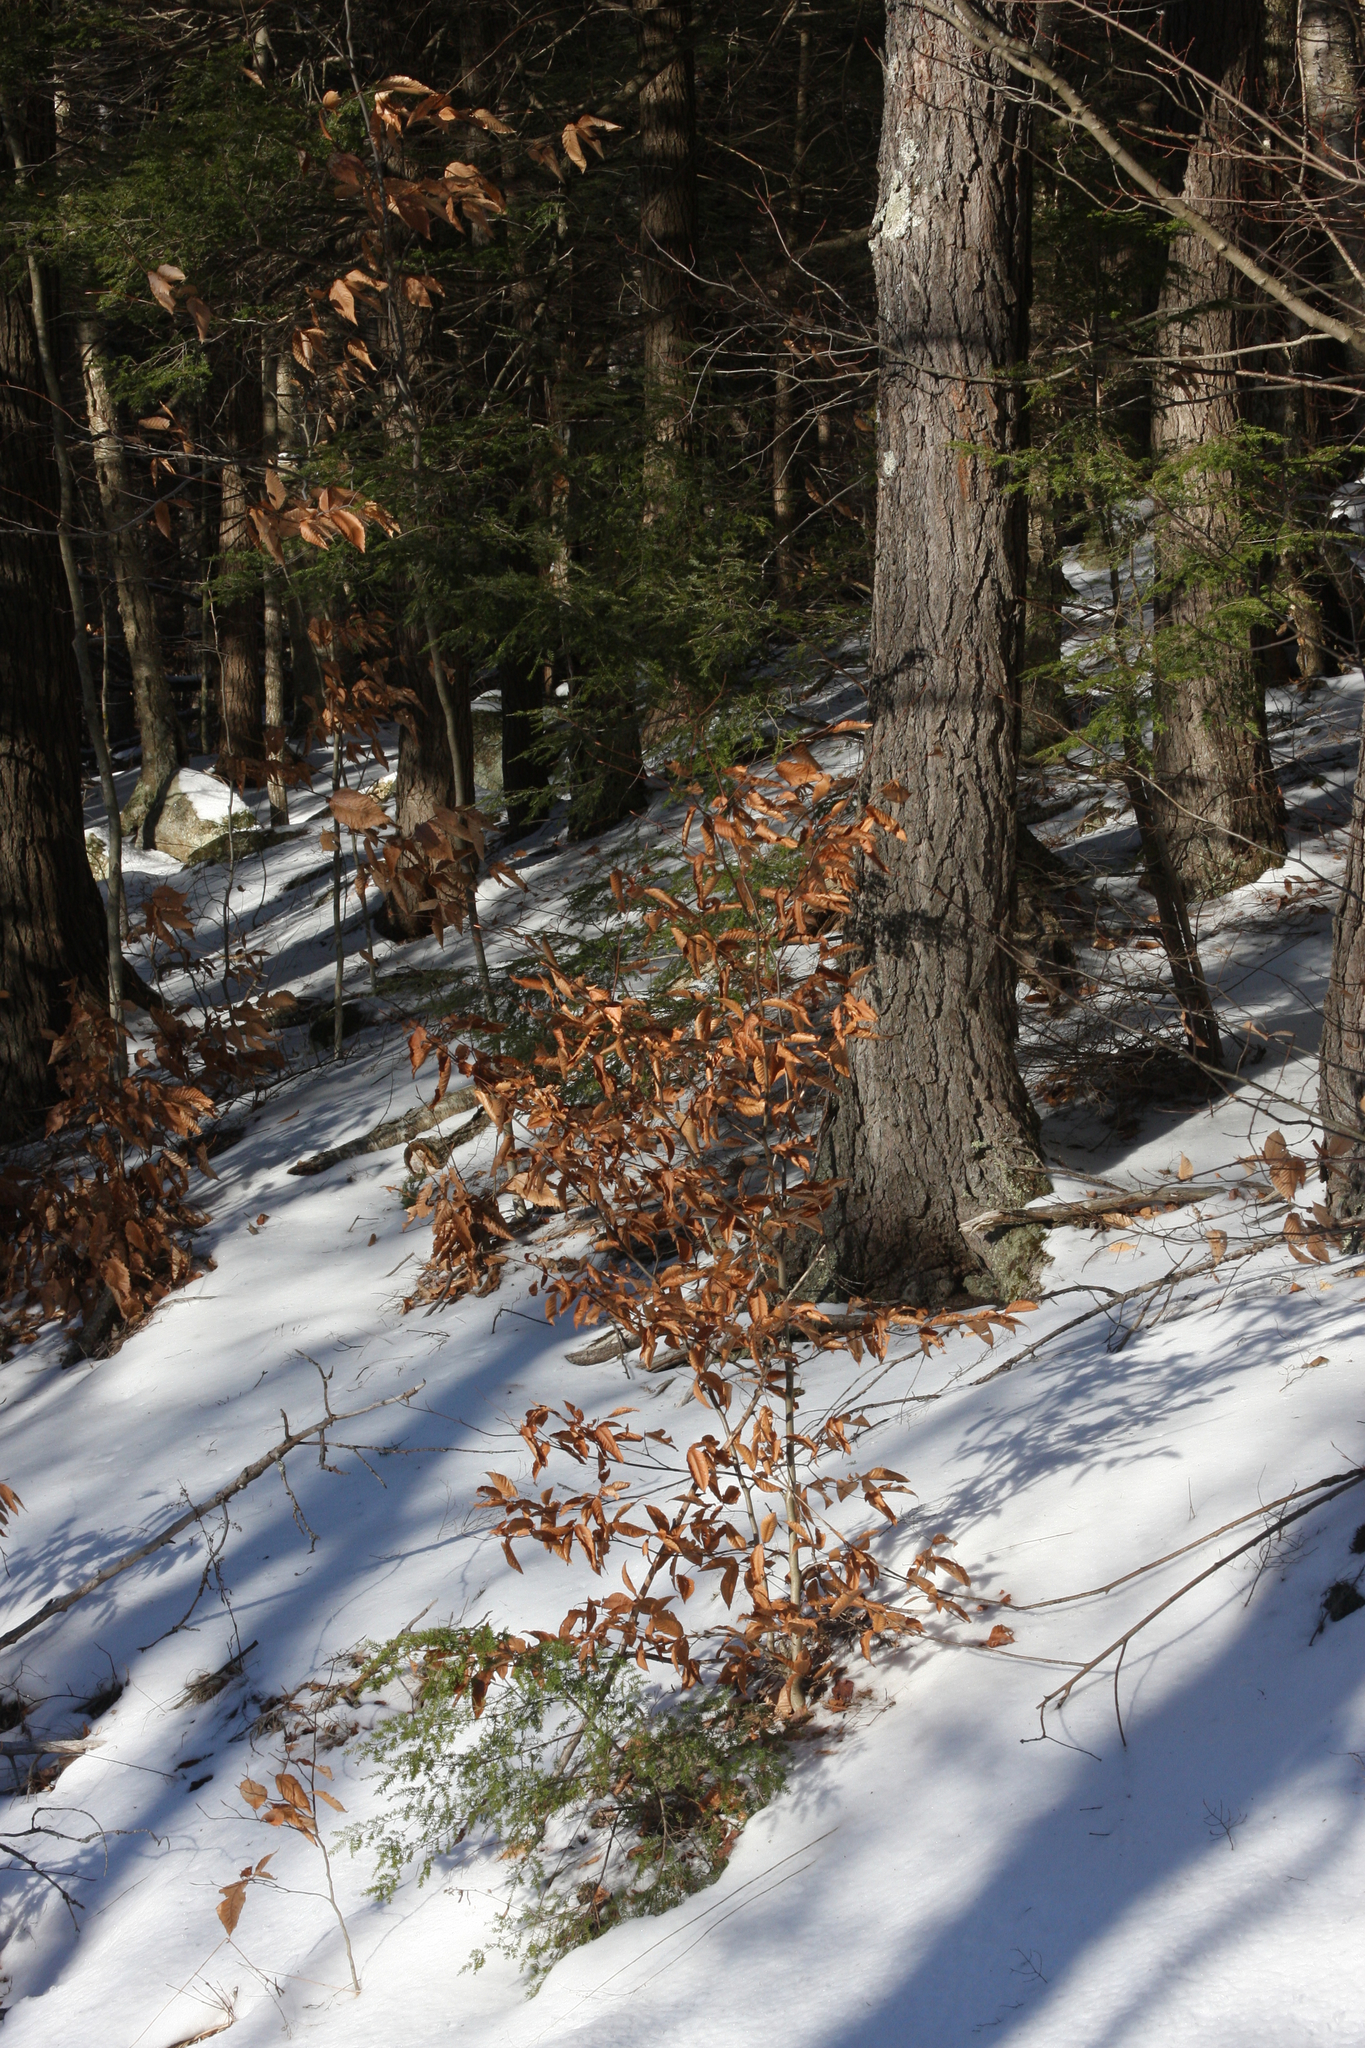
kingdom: Plantae
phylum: Tracheophyta
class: Magnoliopsida
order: Fagales
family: Fagaceae
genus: Fagus
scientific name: Fagus grandifolia
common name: American beech
